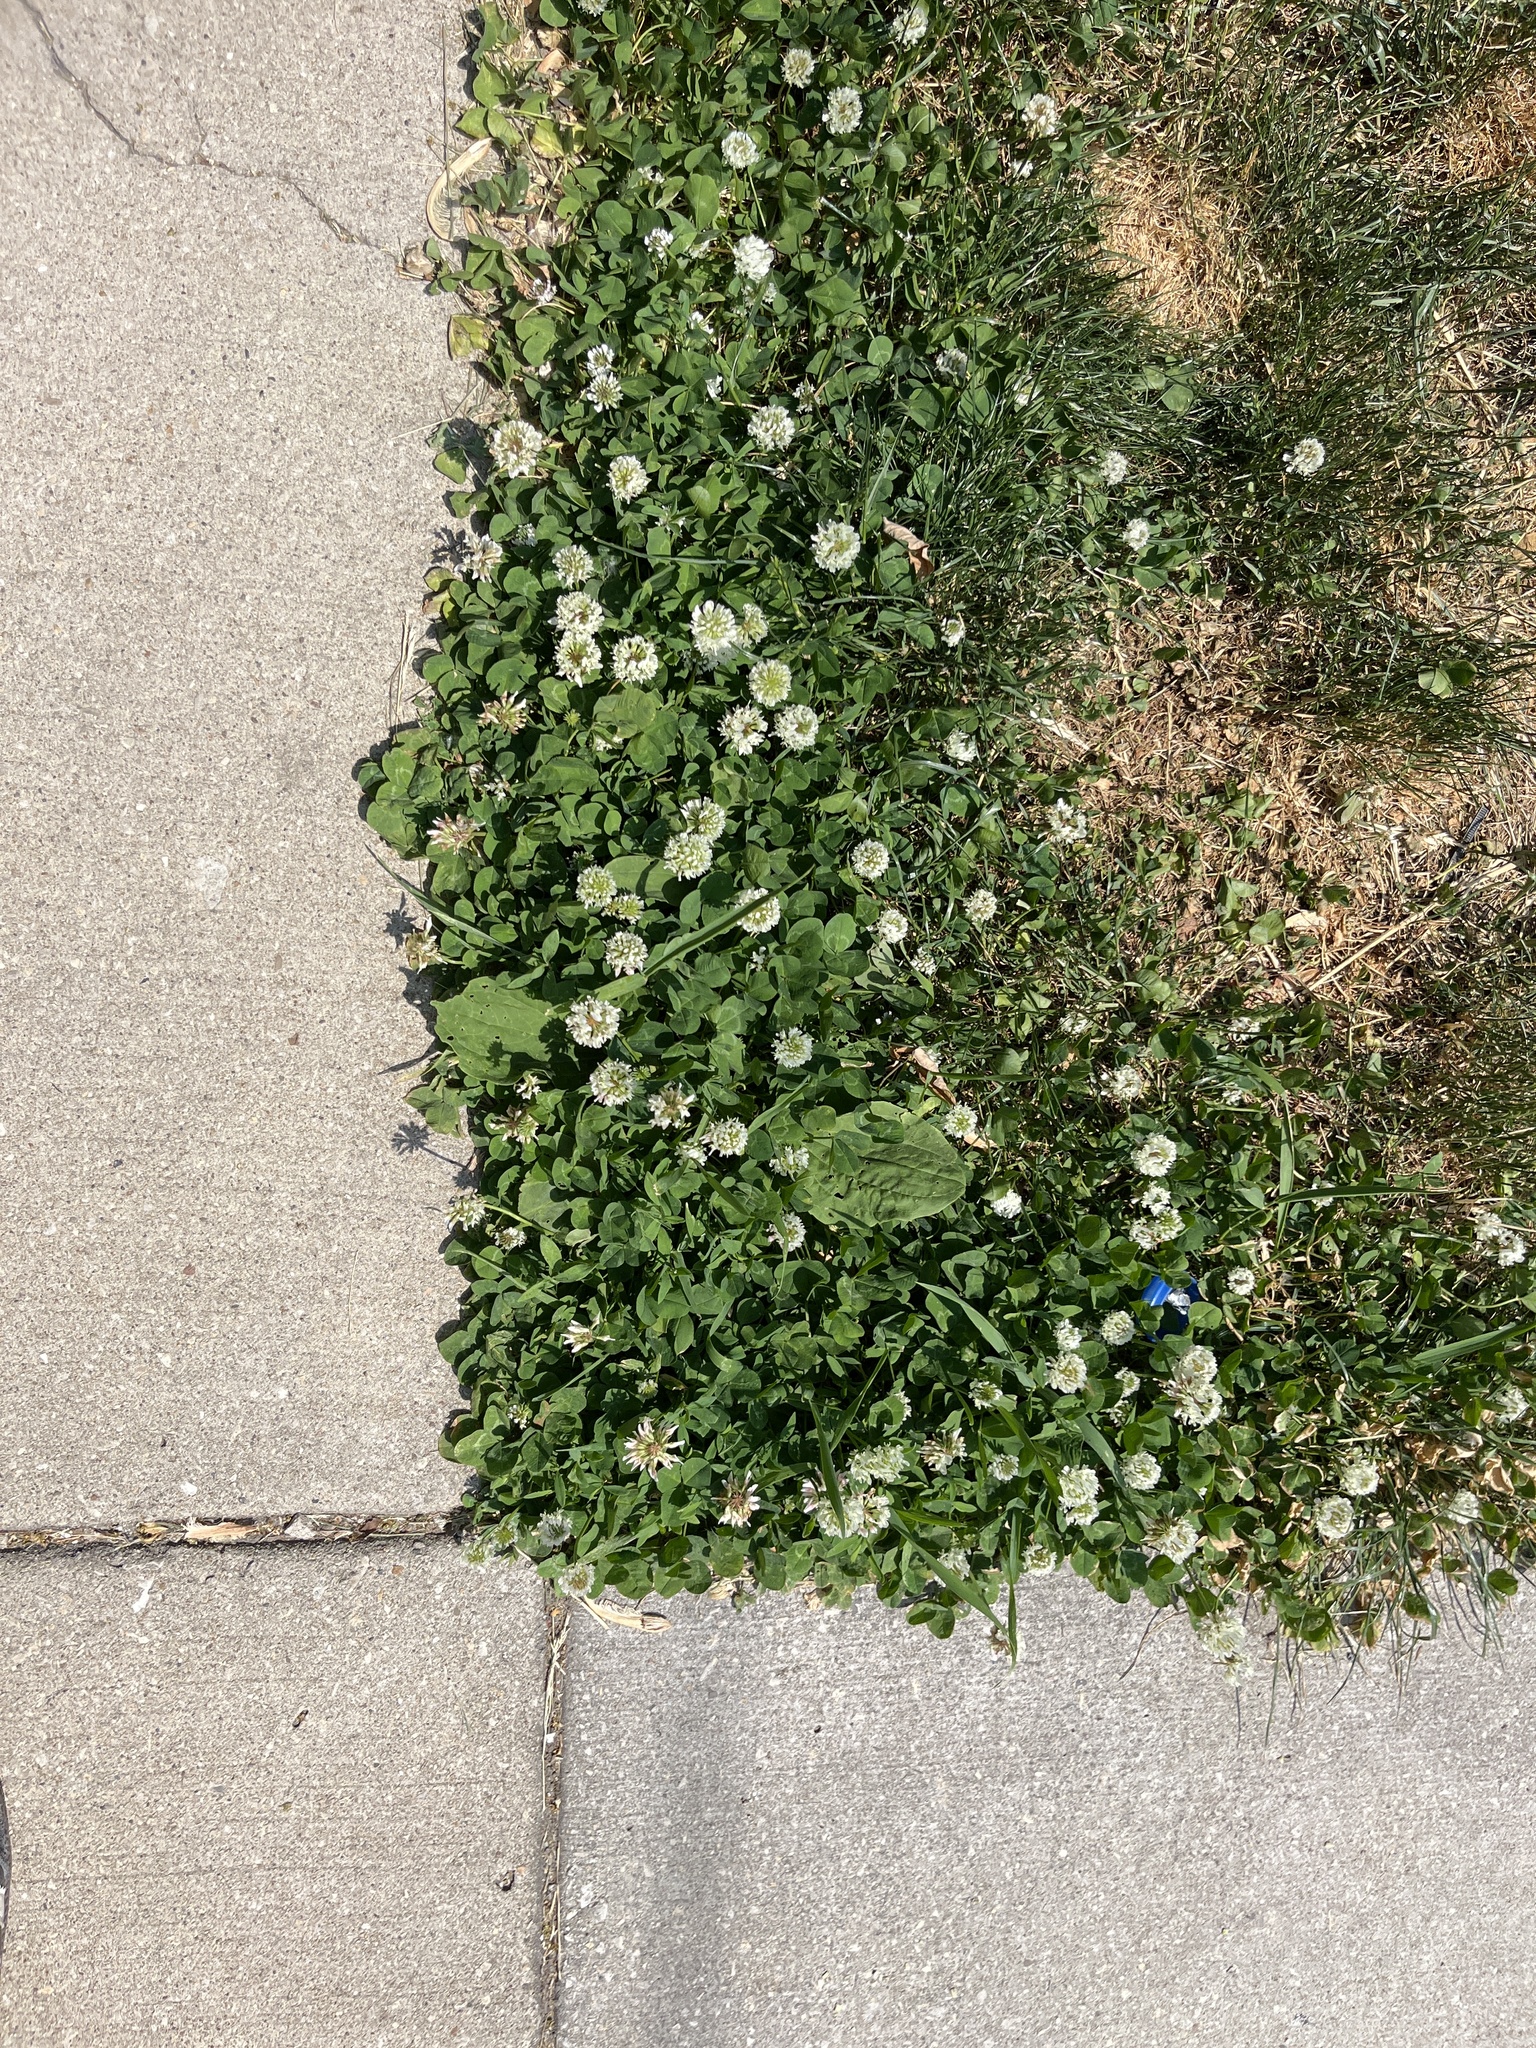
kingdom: Plantae
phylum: Tracheophyta
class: Magnoliopsida
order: Fabales
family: Fabaceae
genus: Trifolium
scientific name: Trifolium repens
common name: White clover
